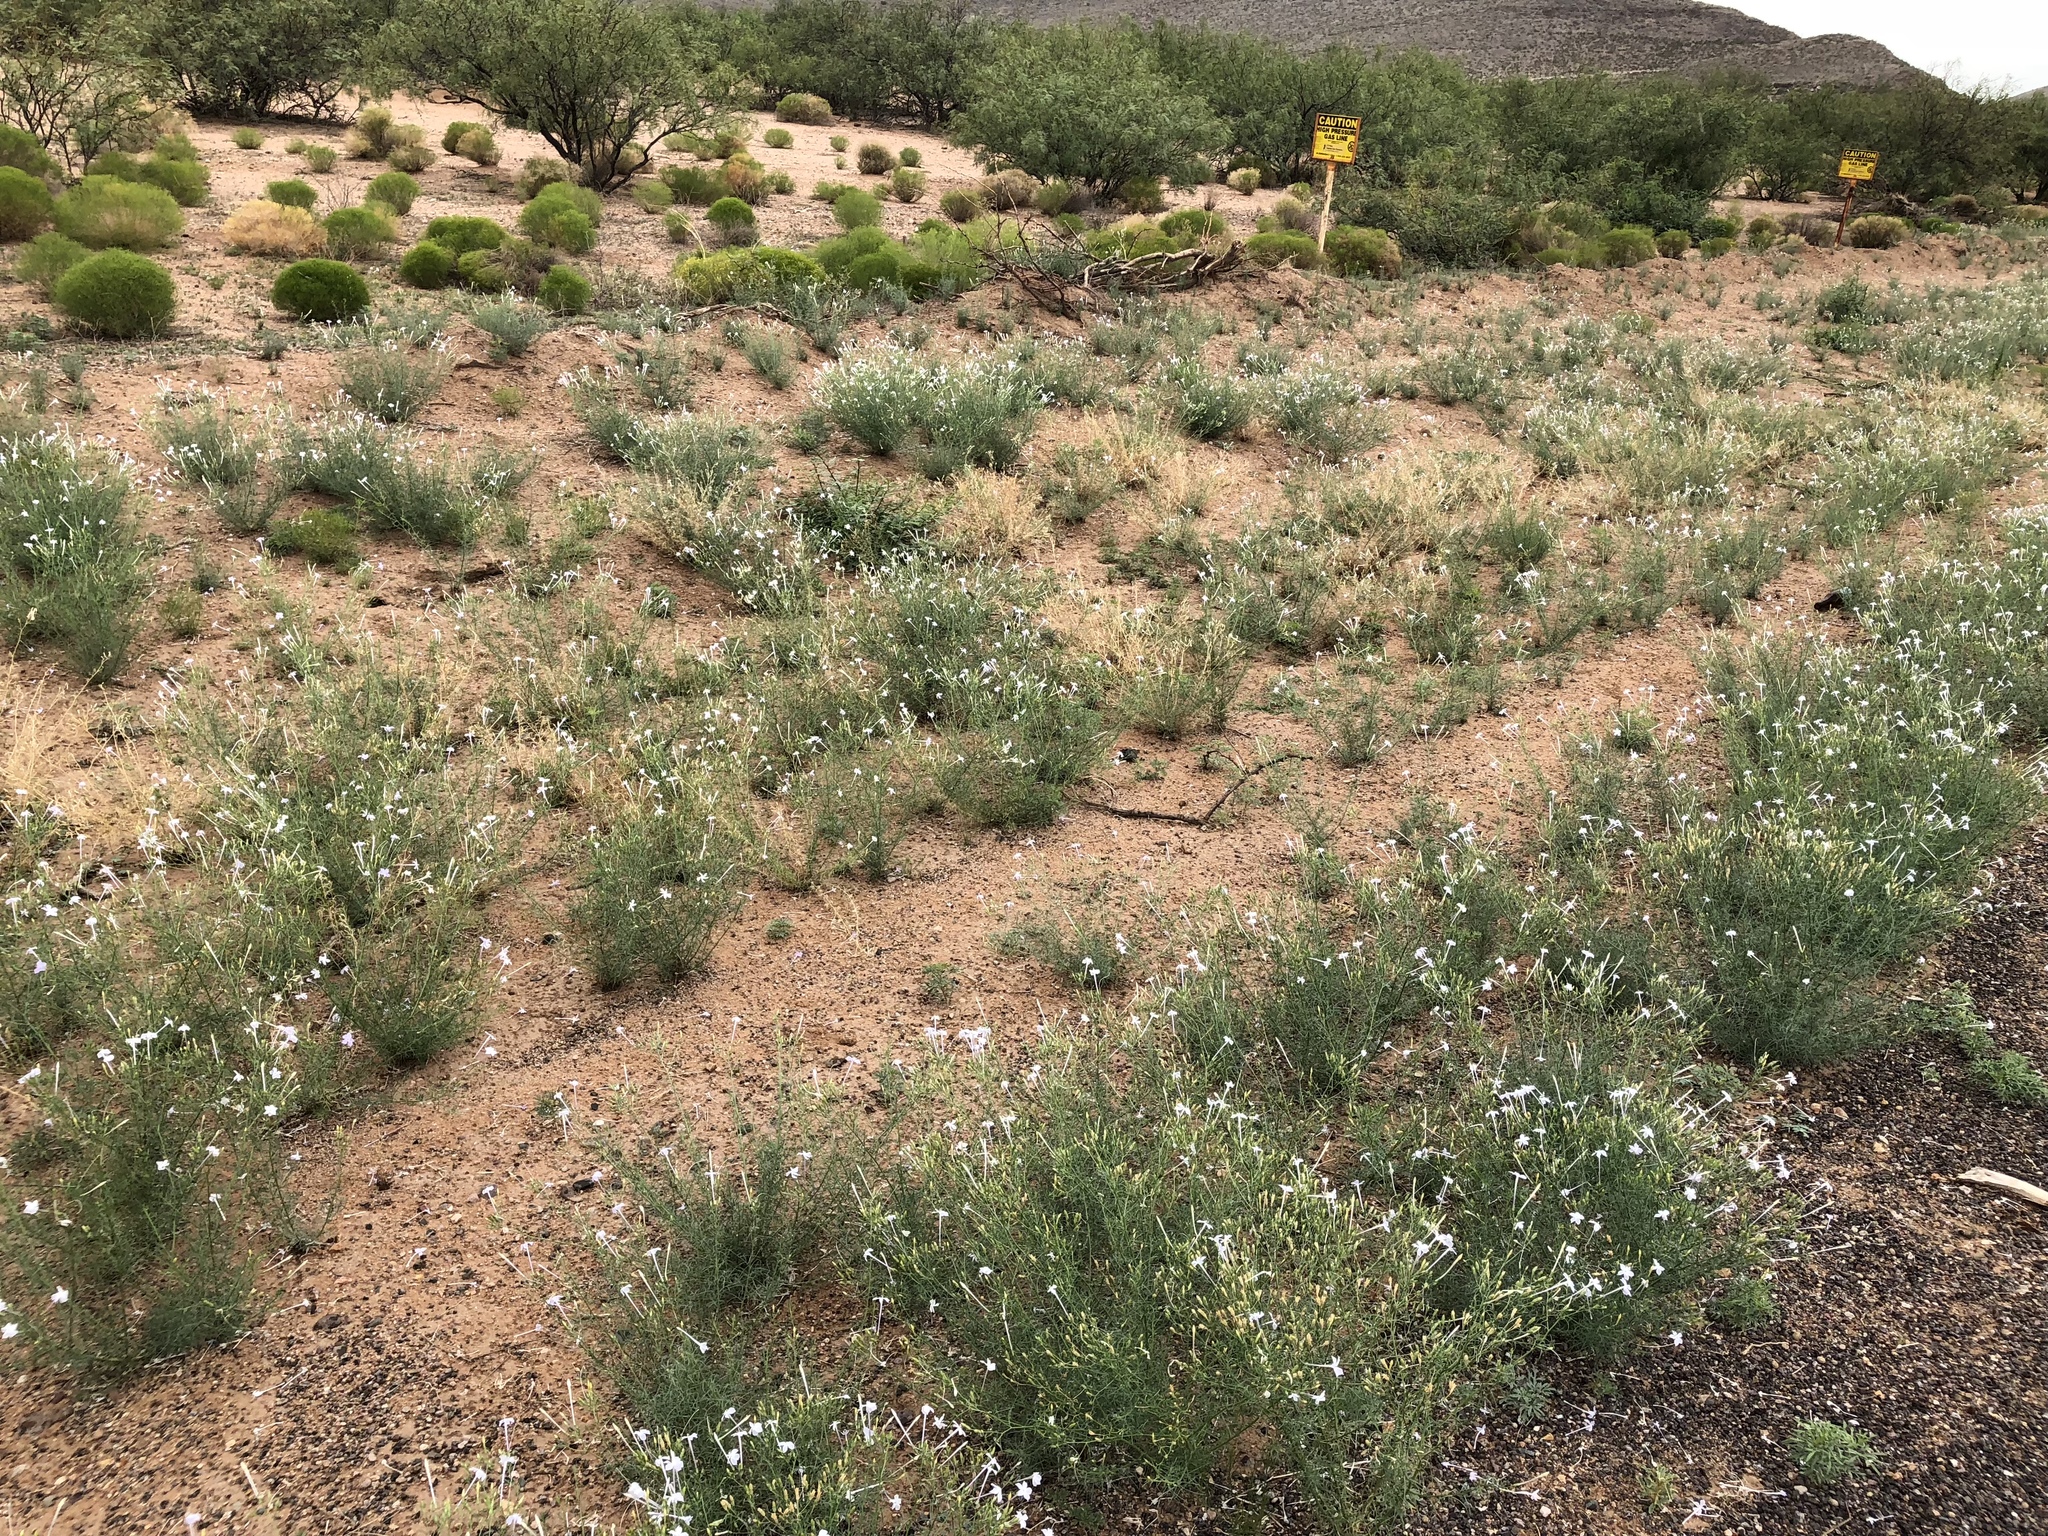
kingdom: Plantae
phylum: Tracheophyta
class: Magnoliopsida
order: Ericales
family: Polemoniaceae
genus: Ipomopsis
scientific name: Ipomopsis longiflora
